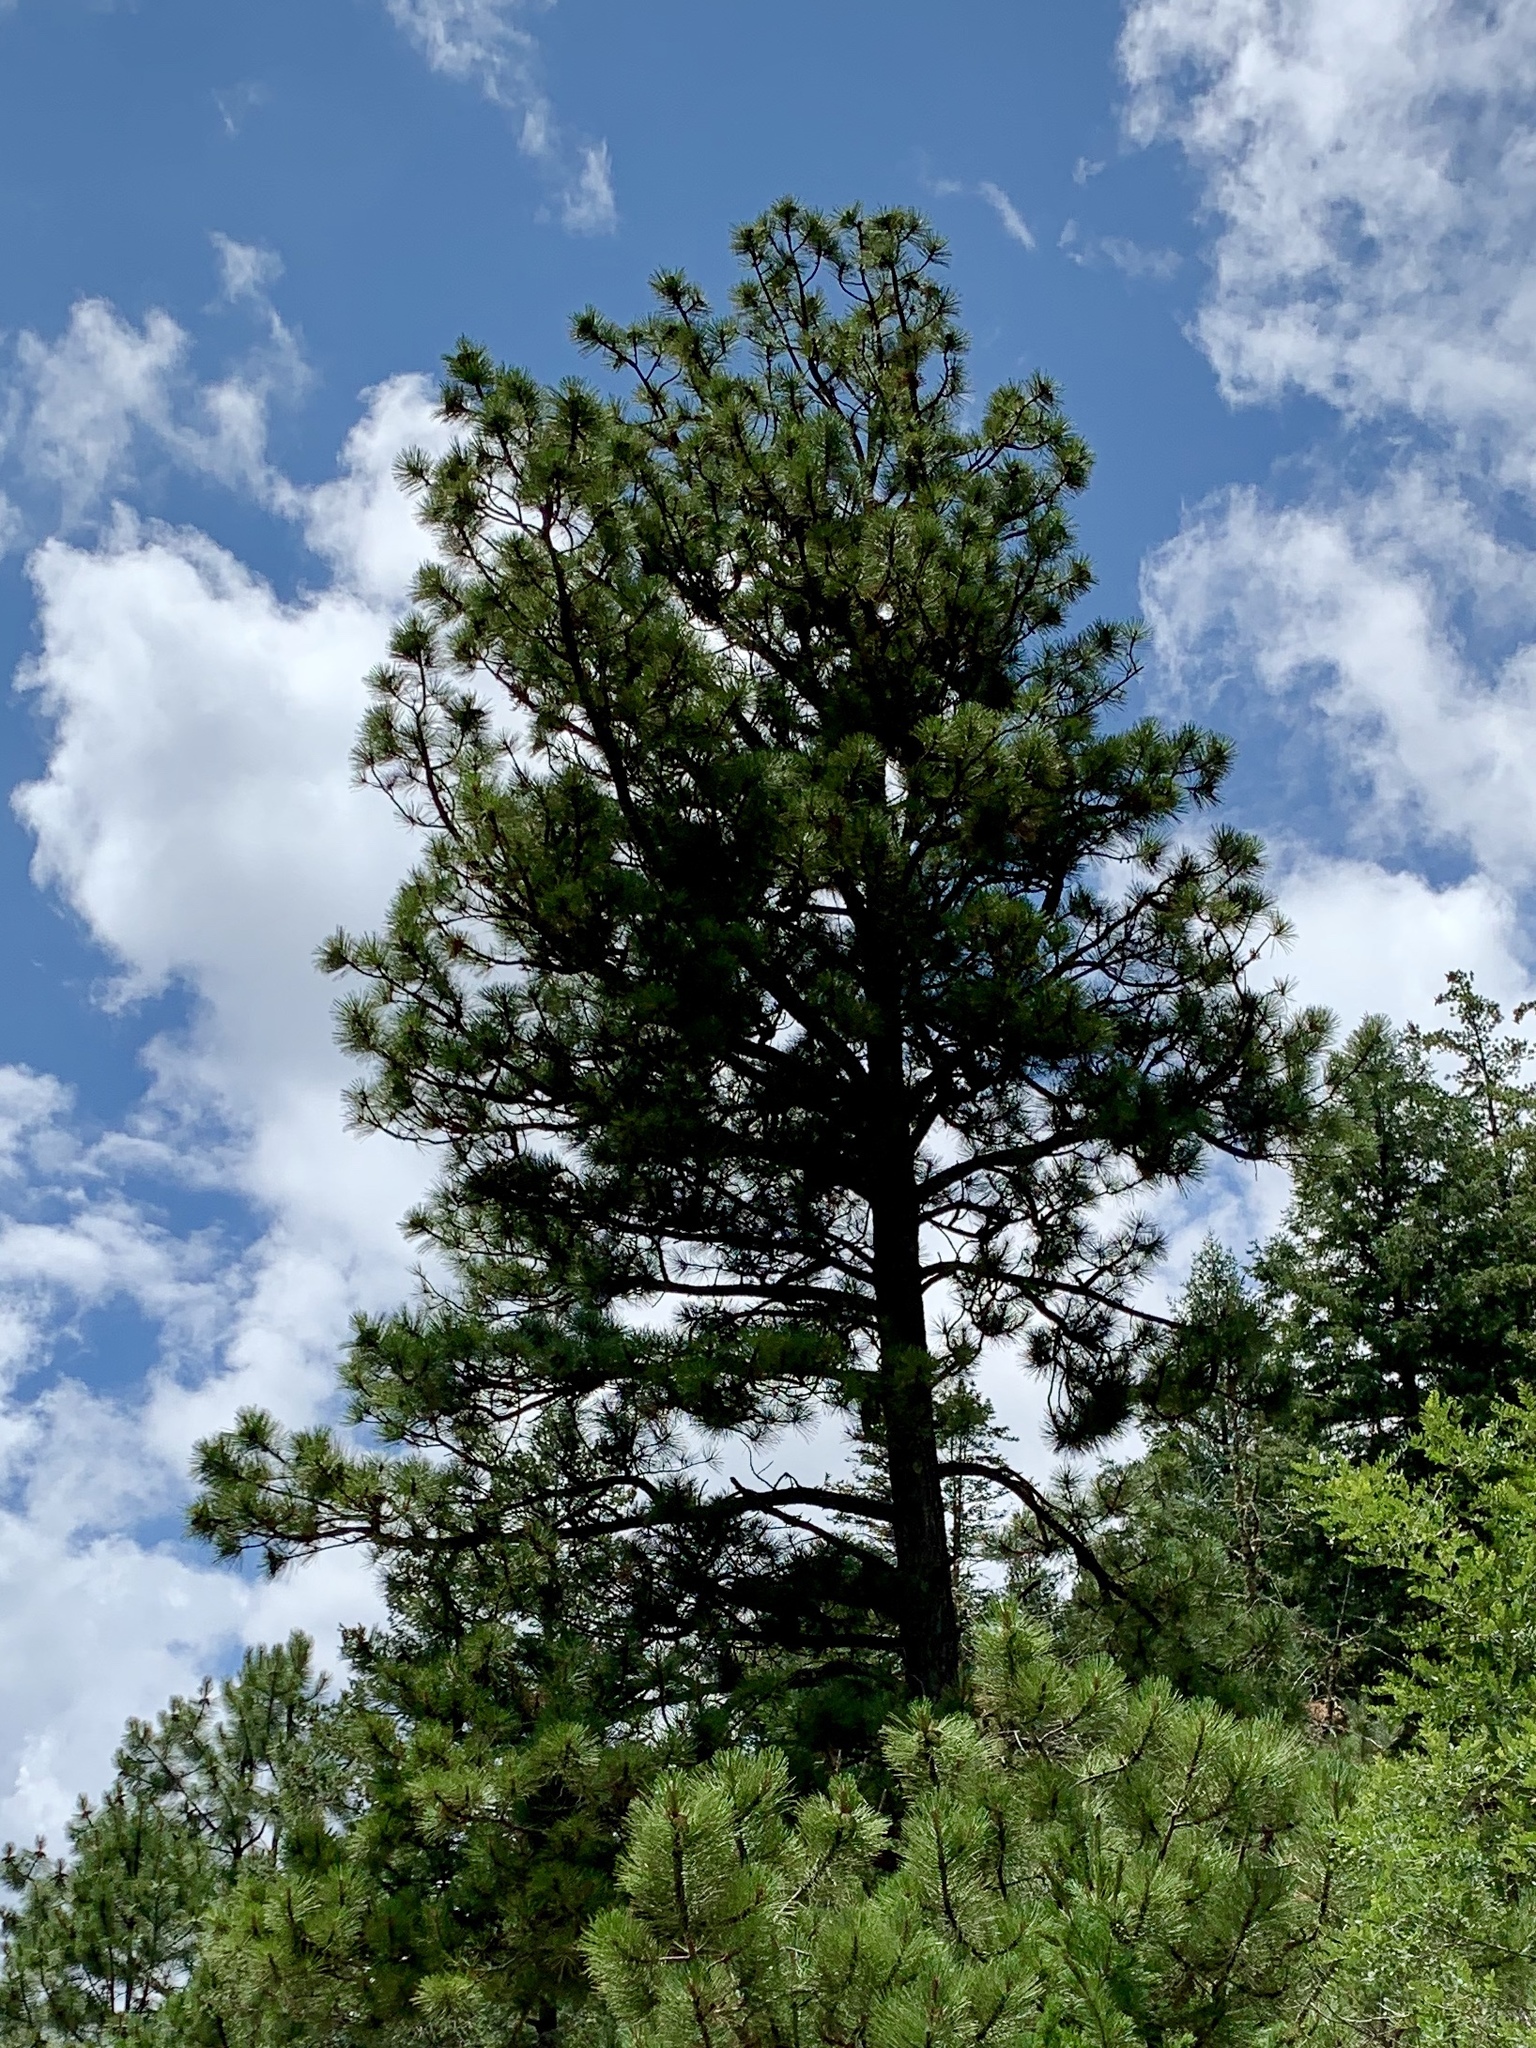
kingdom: Plantae
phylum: Tracheophyta
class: Pinopsida
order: Pinales
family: Pinaceae
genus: Pinus
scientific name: Pinus ponderosa
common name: Western yellow-pine
